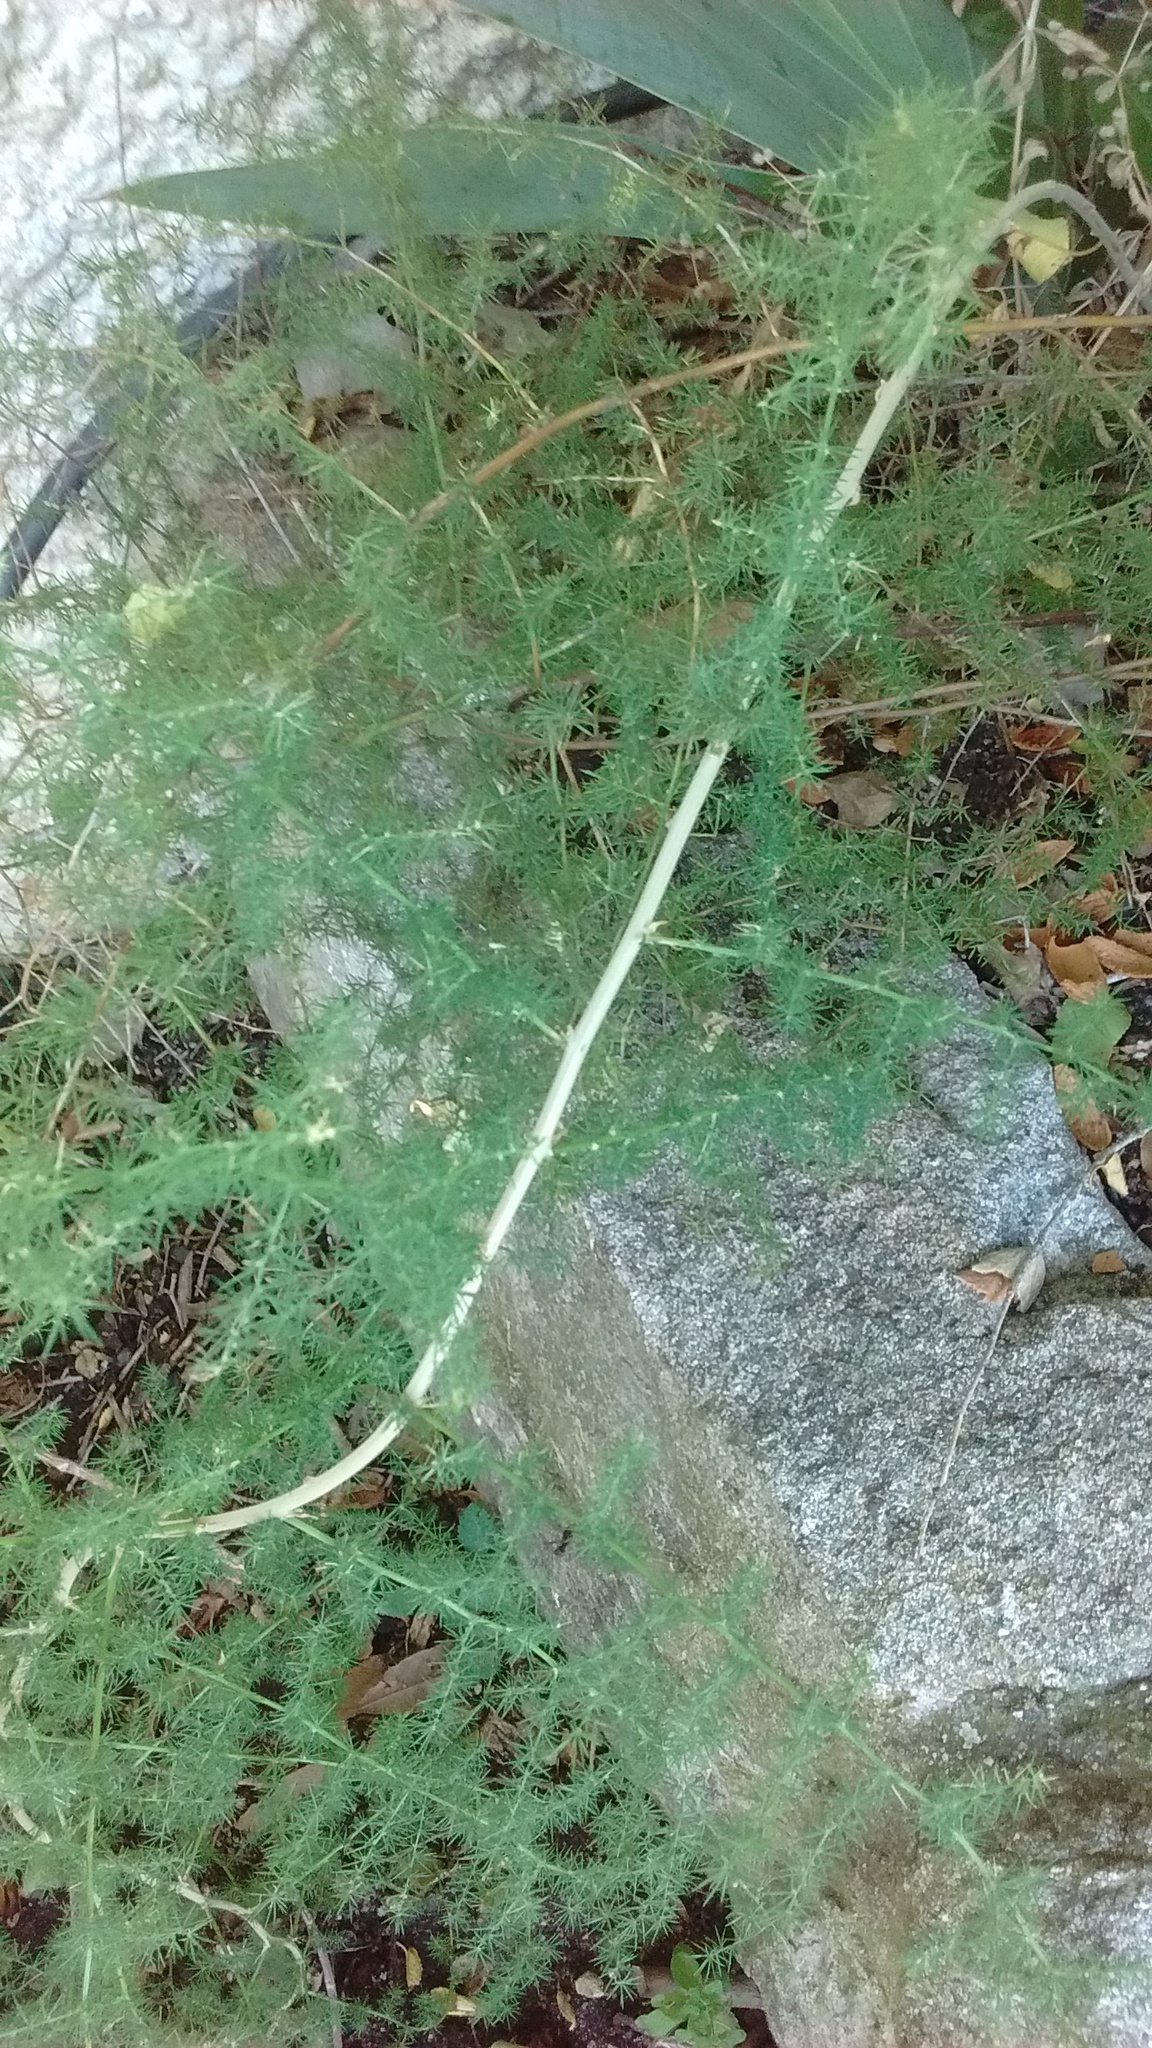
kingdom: Plantae
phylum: Tracheophyta
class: Liliopsida
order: Asparagales
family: Asparagaceae
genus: Asparagus
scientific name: Asparagus acutifolius
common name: Wild asparagus
